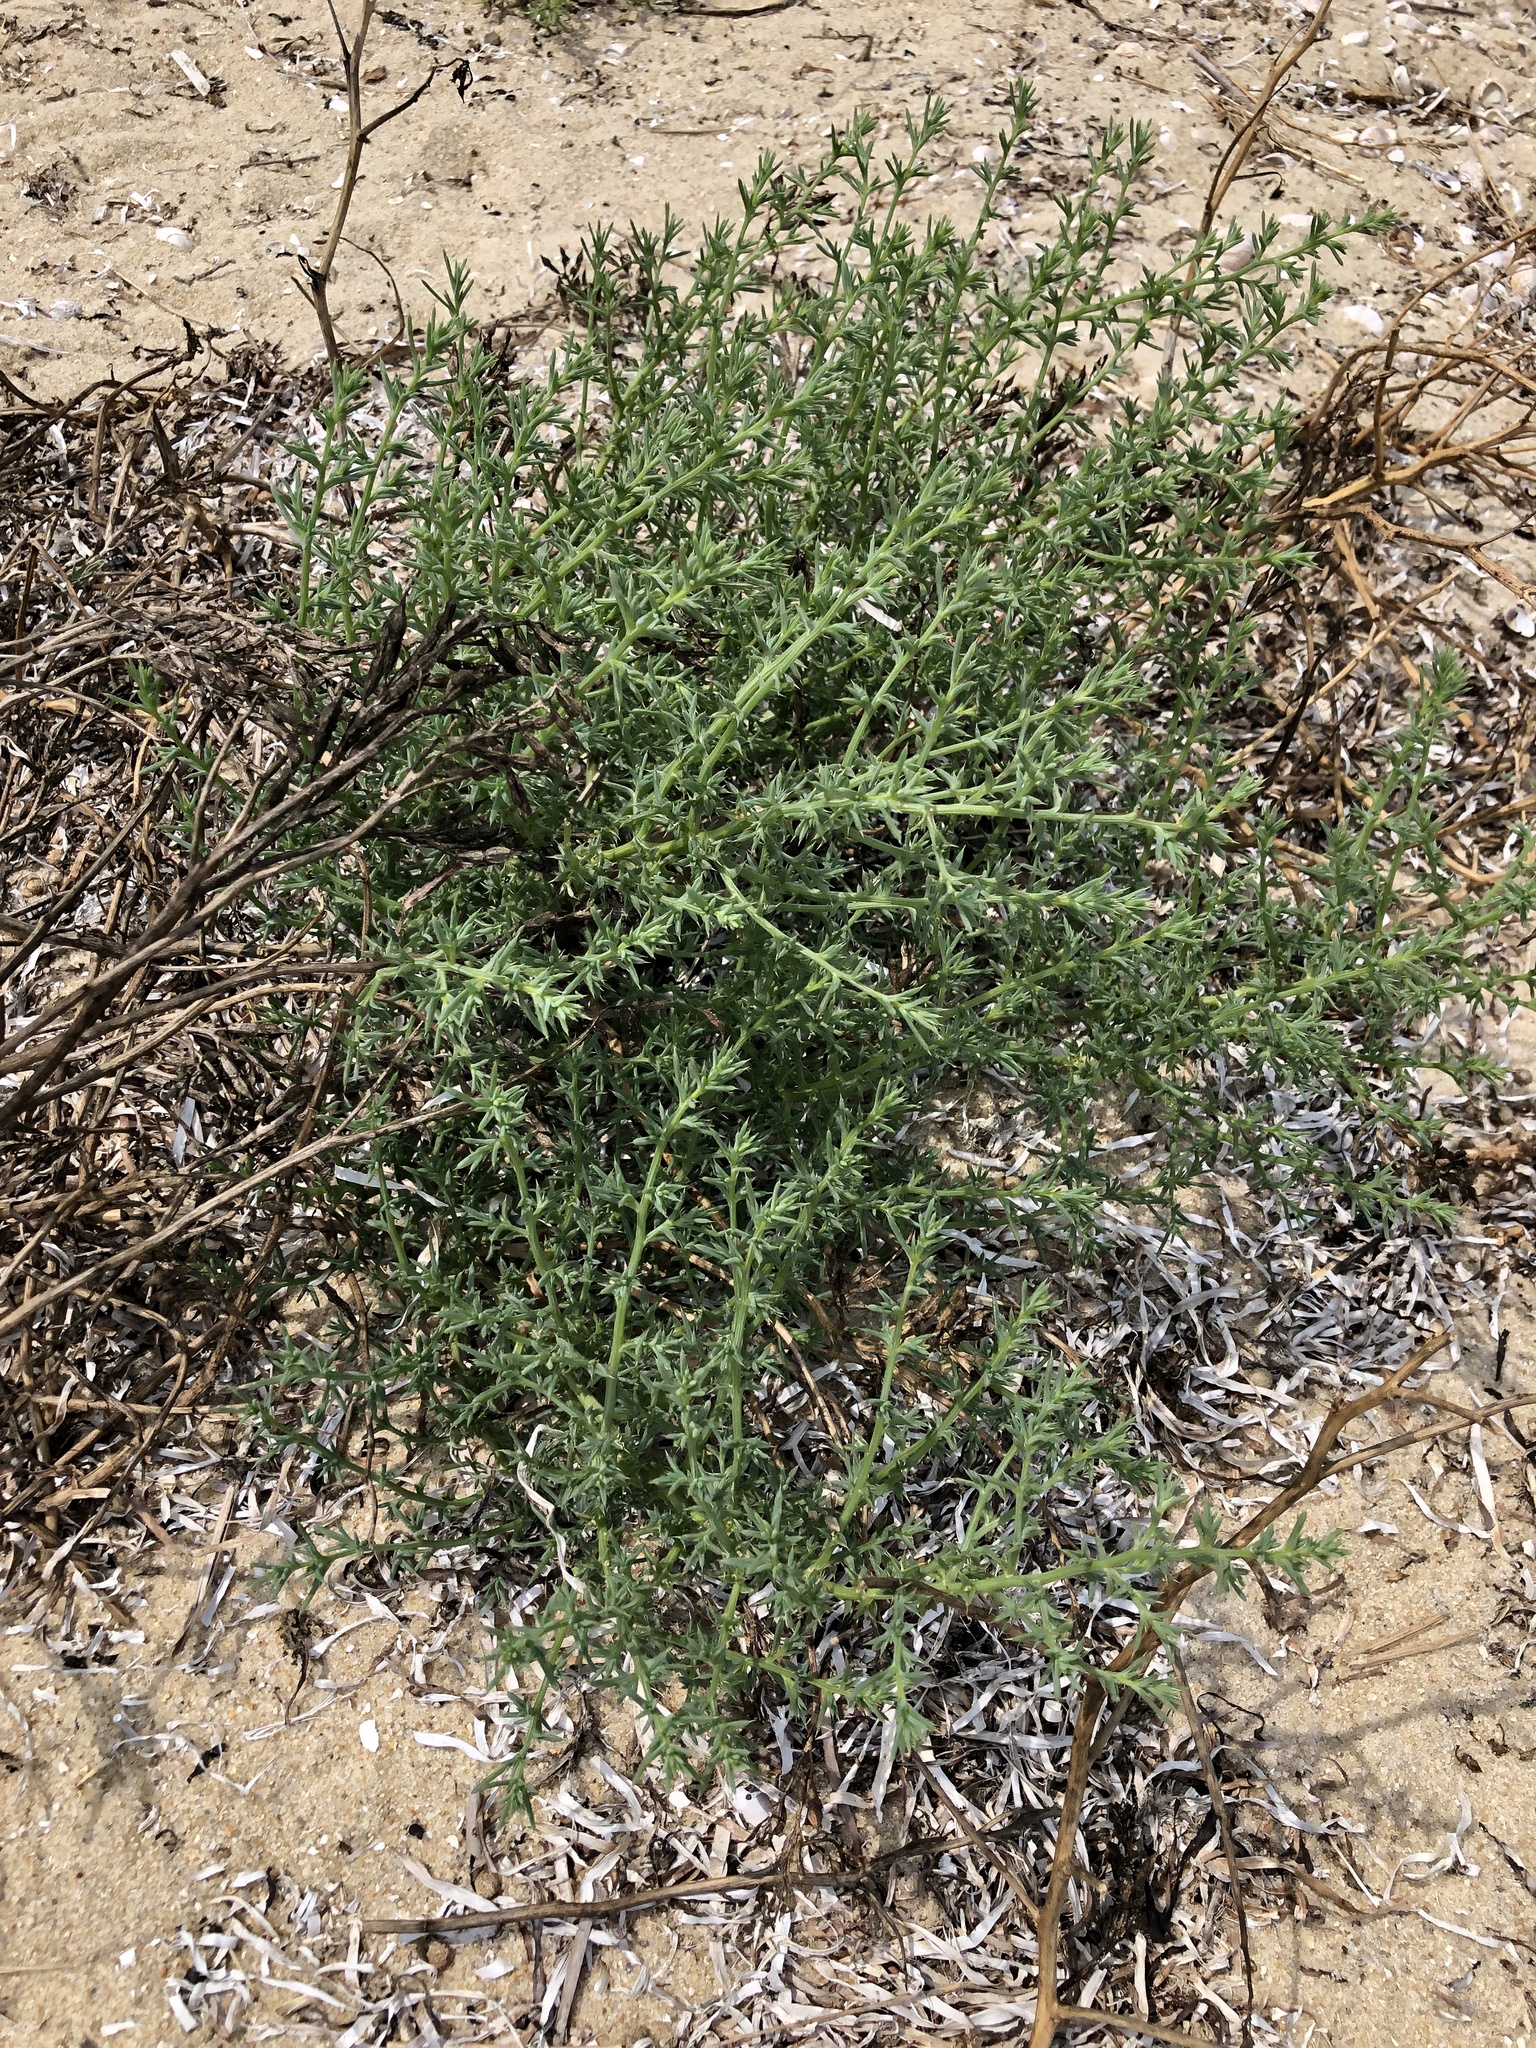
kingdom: Plantae
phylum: Tracheophyta
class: Magnoliopsida
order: Caryophyllales
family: Amaranthaceae
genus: Salsola
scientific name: Salsola kali
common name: Saltwort
